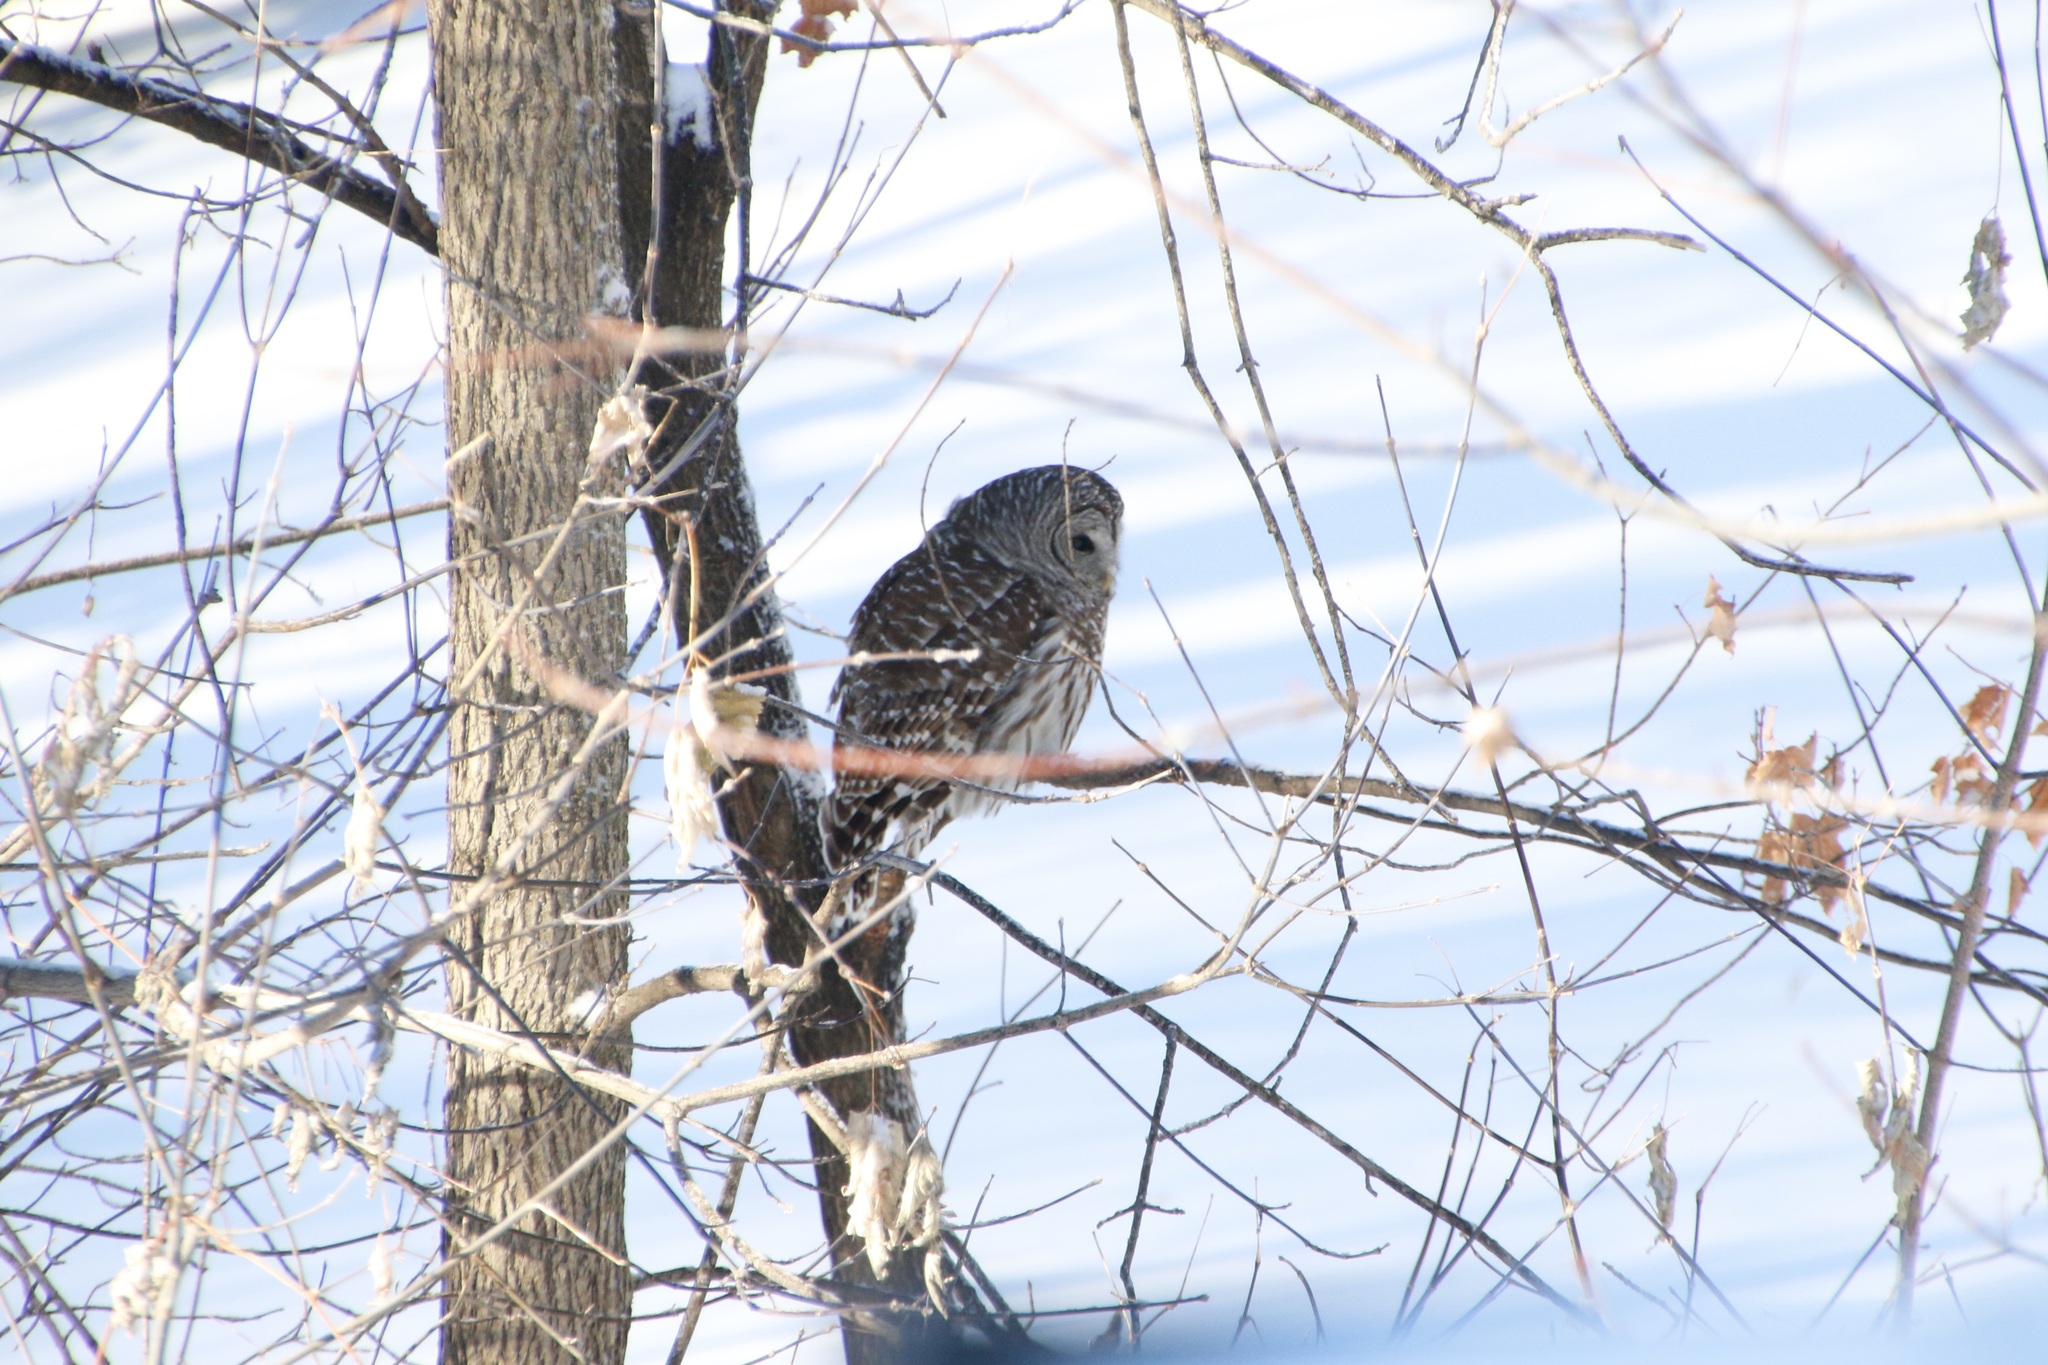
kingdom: Animalia
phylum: Chordata
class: Aves
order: Strigiformes
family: Strigidae
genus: Strix
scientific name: Strix varia
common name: Barred owl
